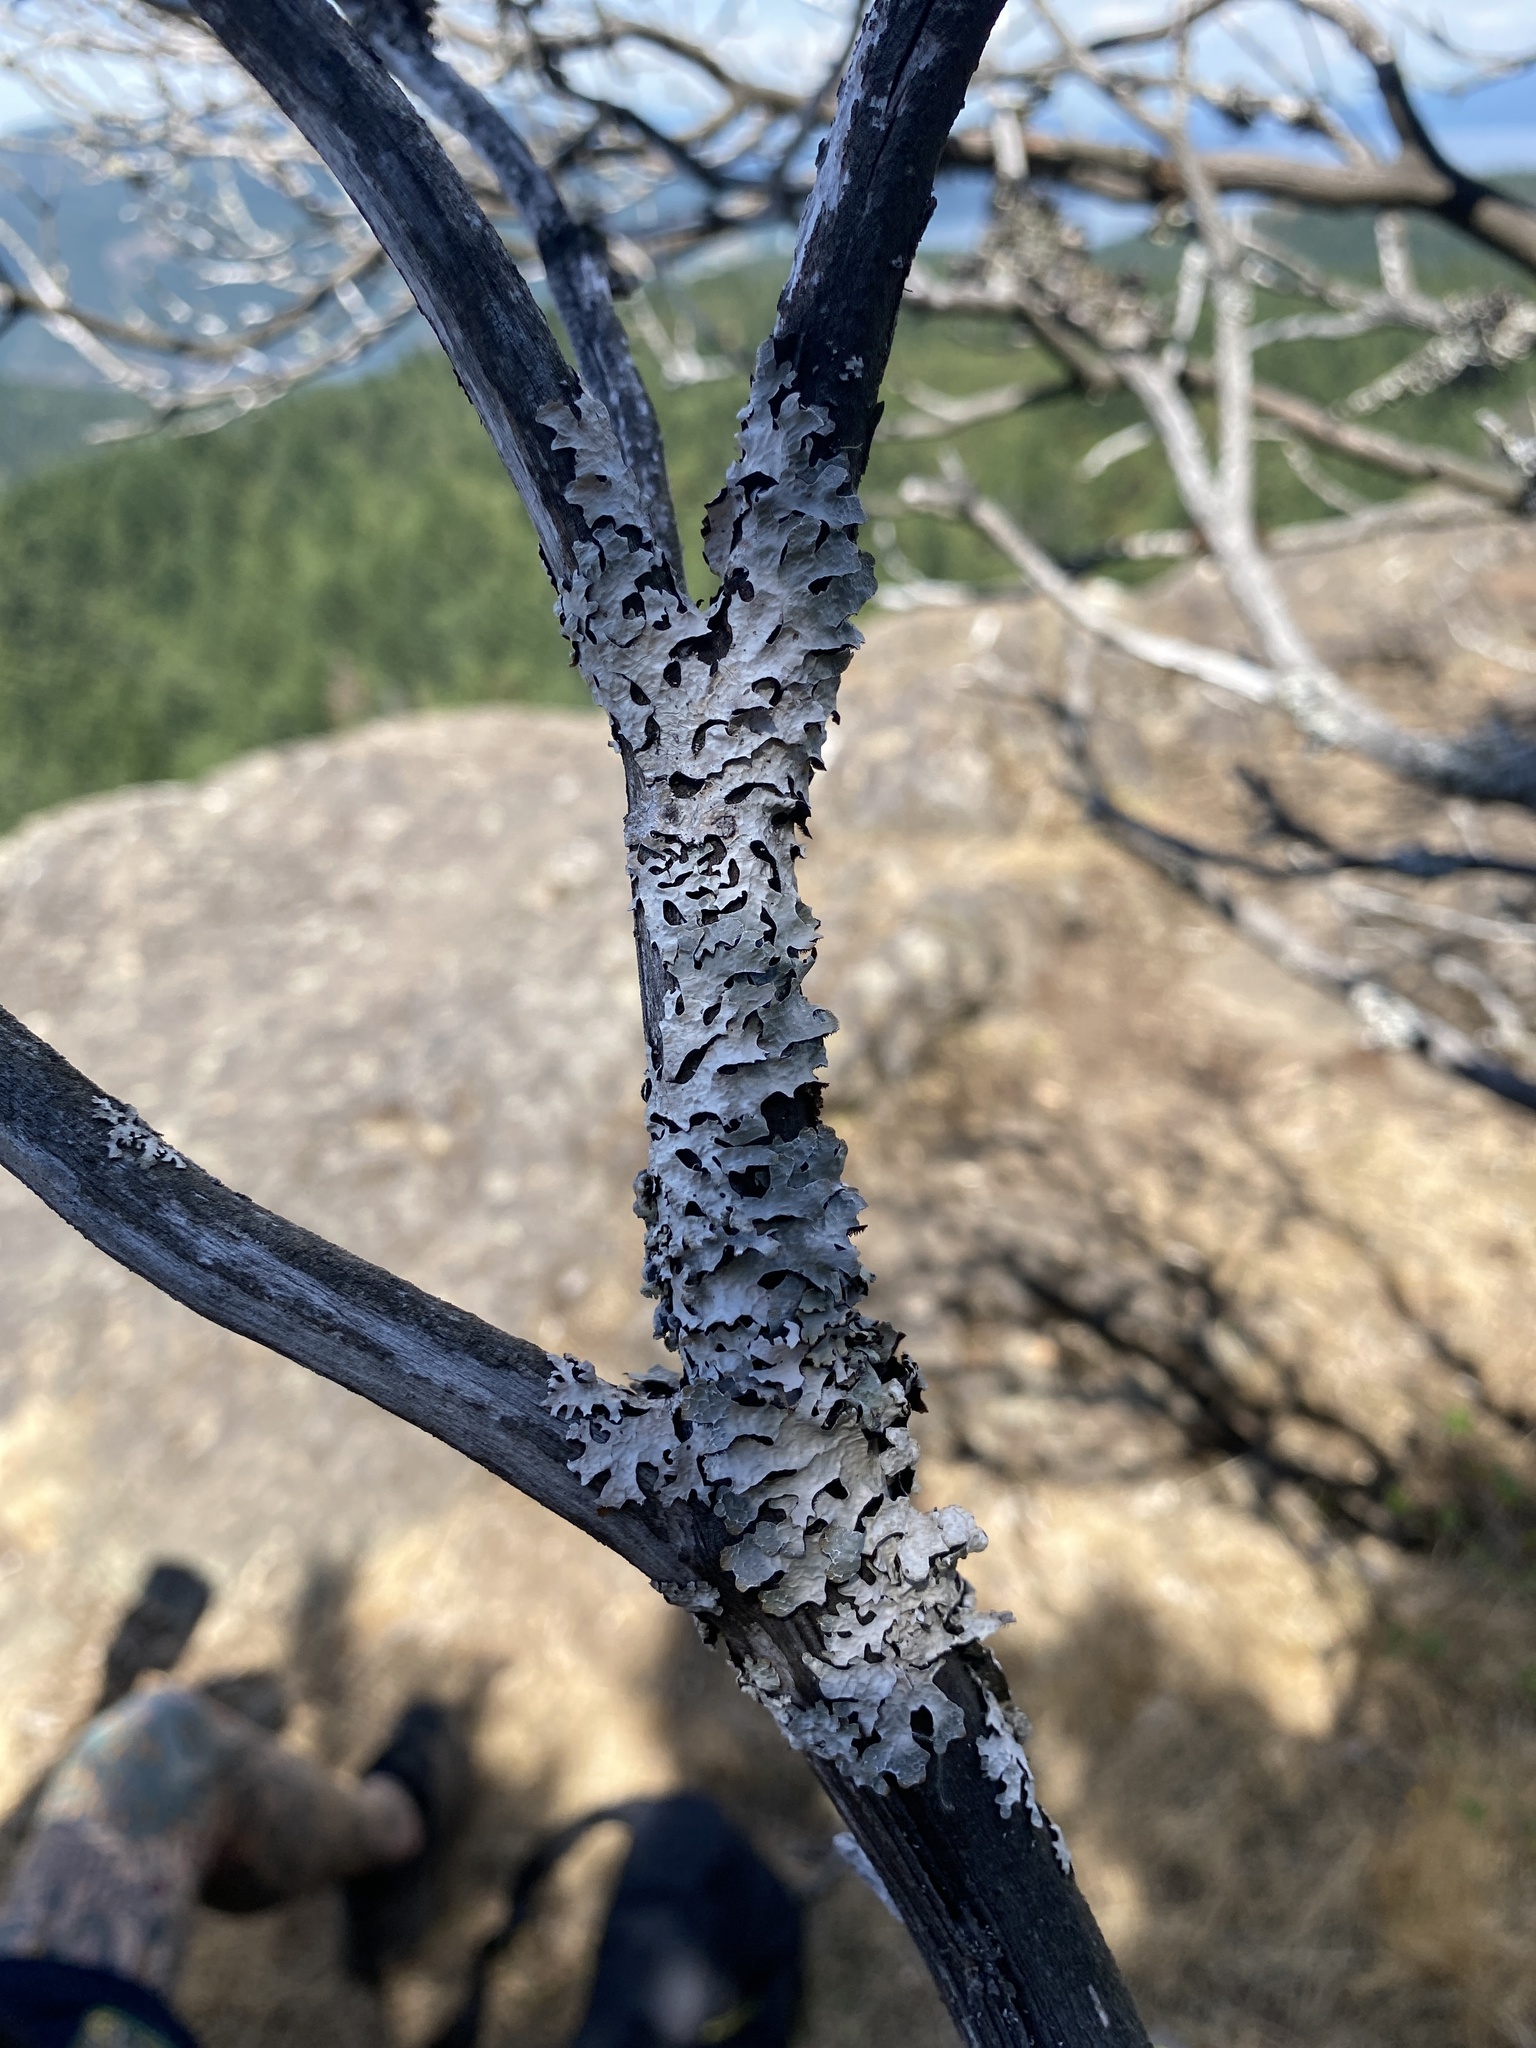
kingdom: Fungi
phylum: Ascomycota
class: Lecanoromycetes
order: Lecanorales
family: Parmeliaceae
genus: Parmelia
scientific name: Parmelia sulcata
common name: Netted shield lichen
